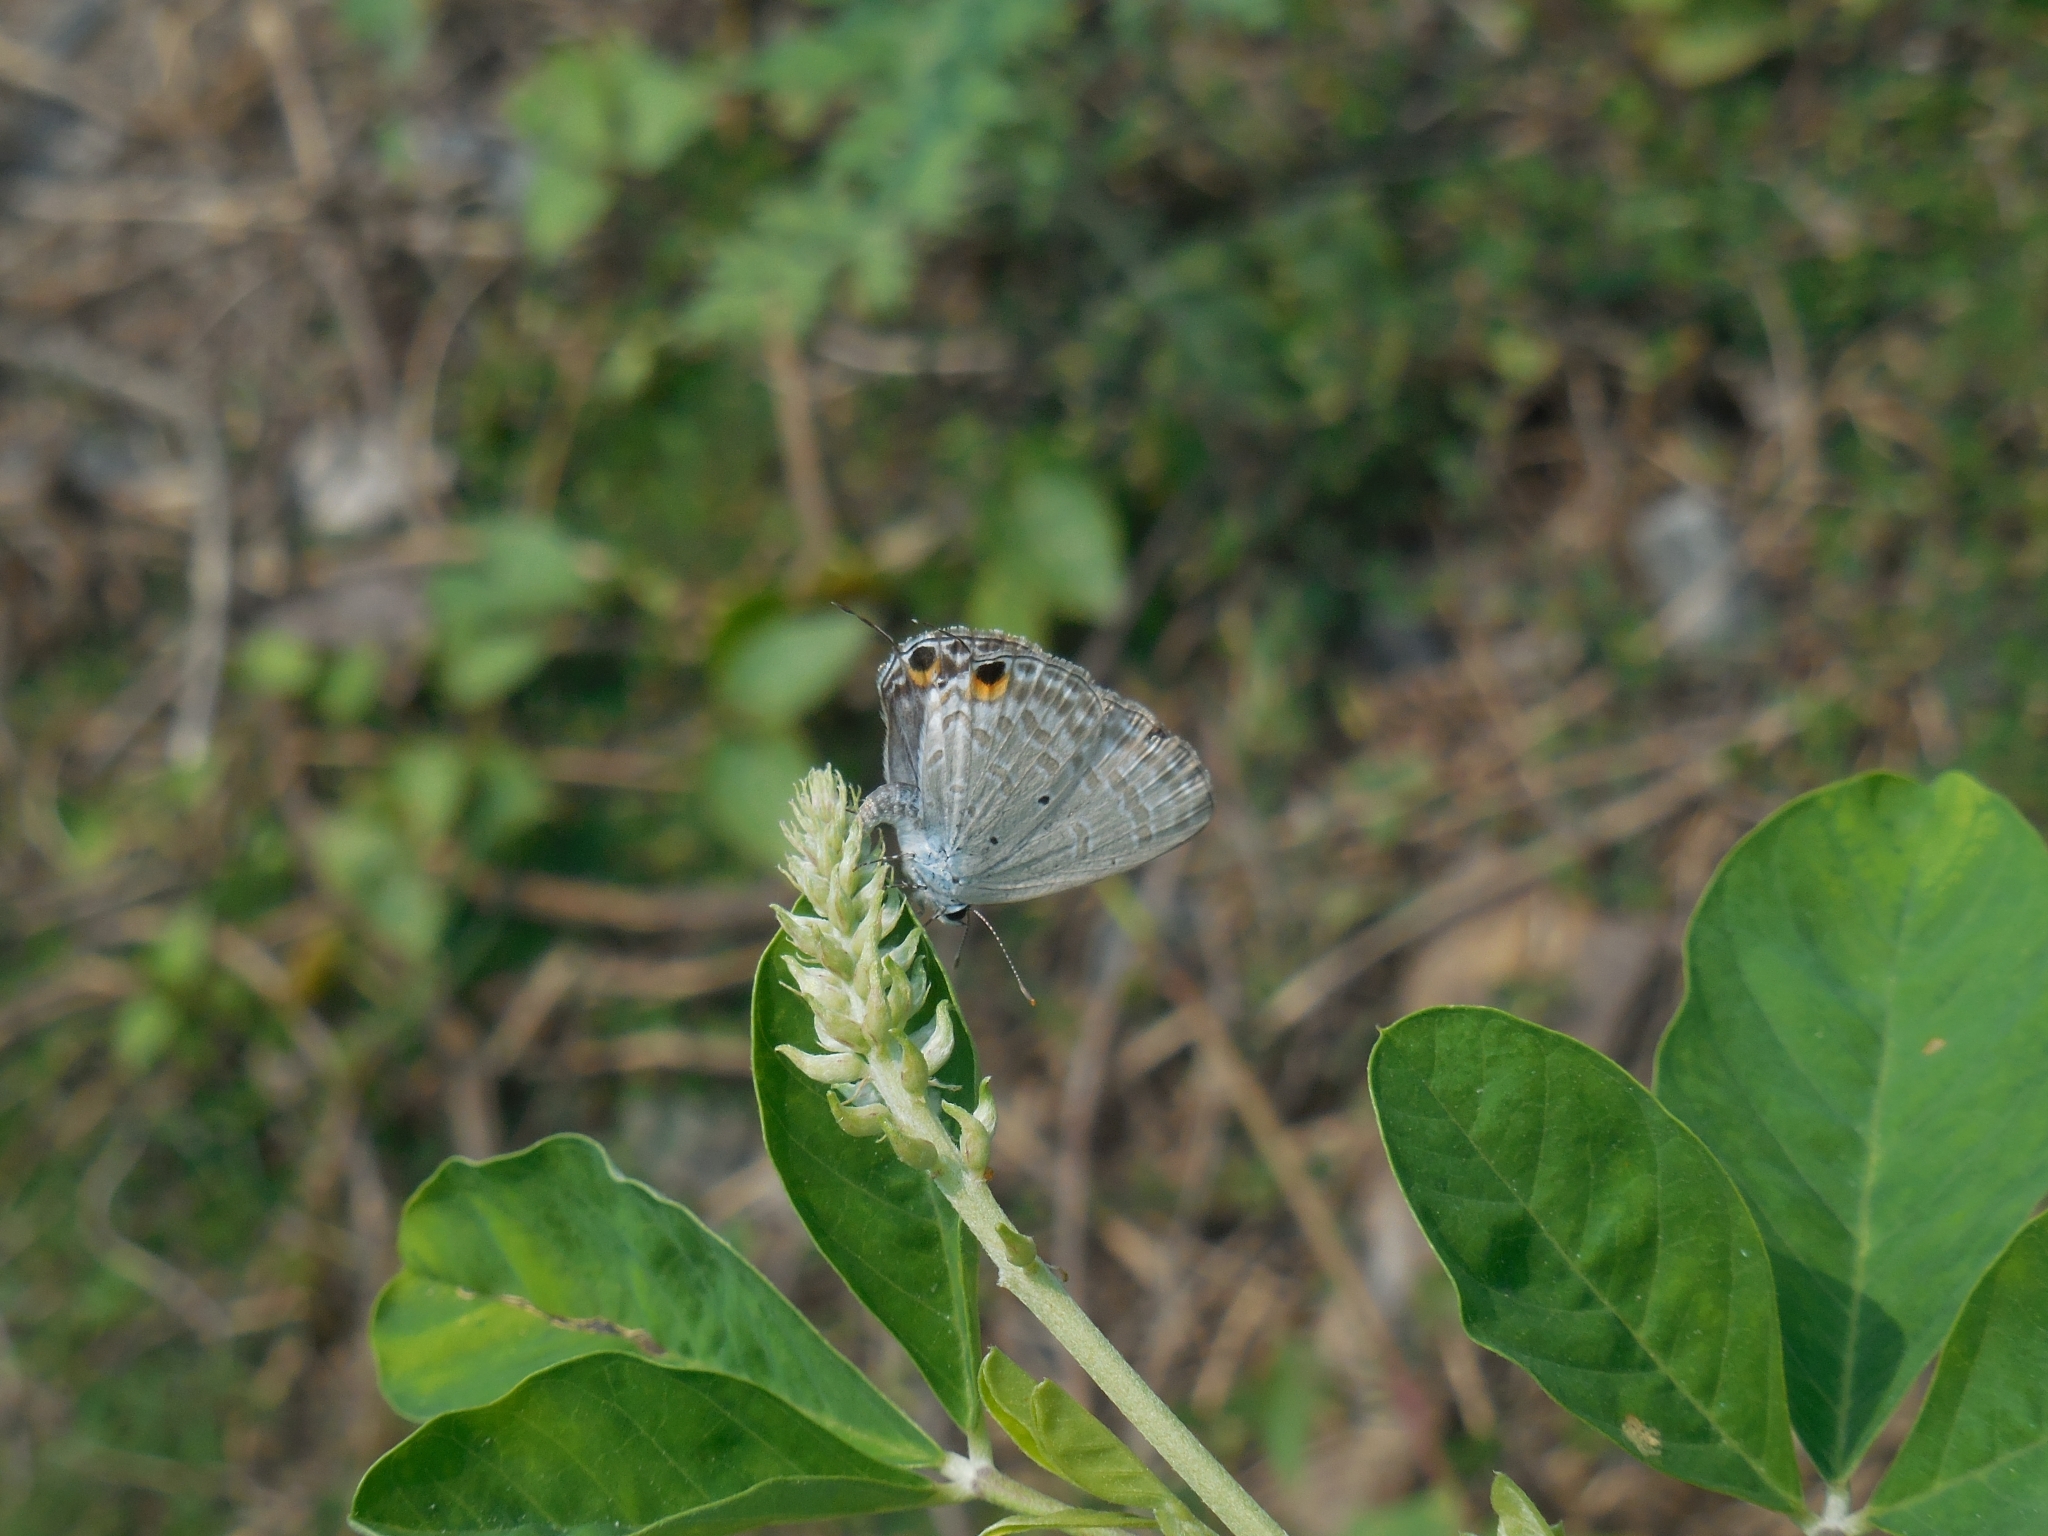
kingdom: Animalia
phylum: Arthropoda
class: Insecta
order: Lepidoptera
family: Lycaenidae
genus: Catochrysops
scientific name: Catochrysops strabo
